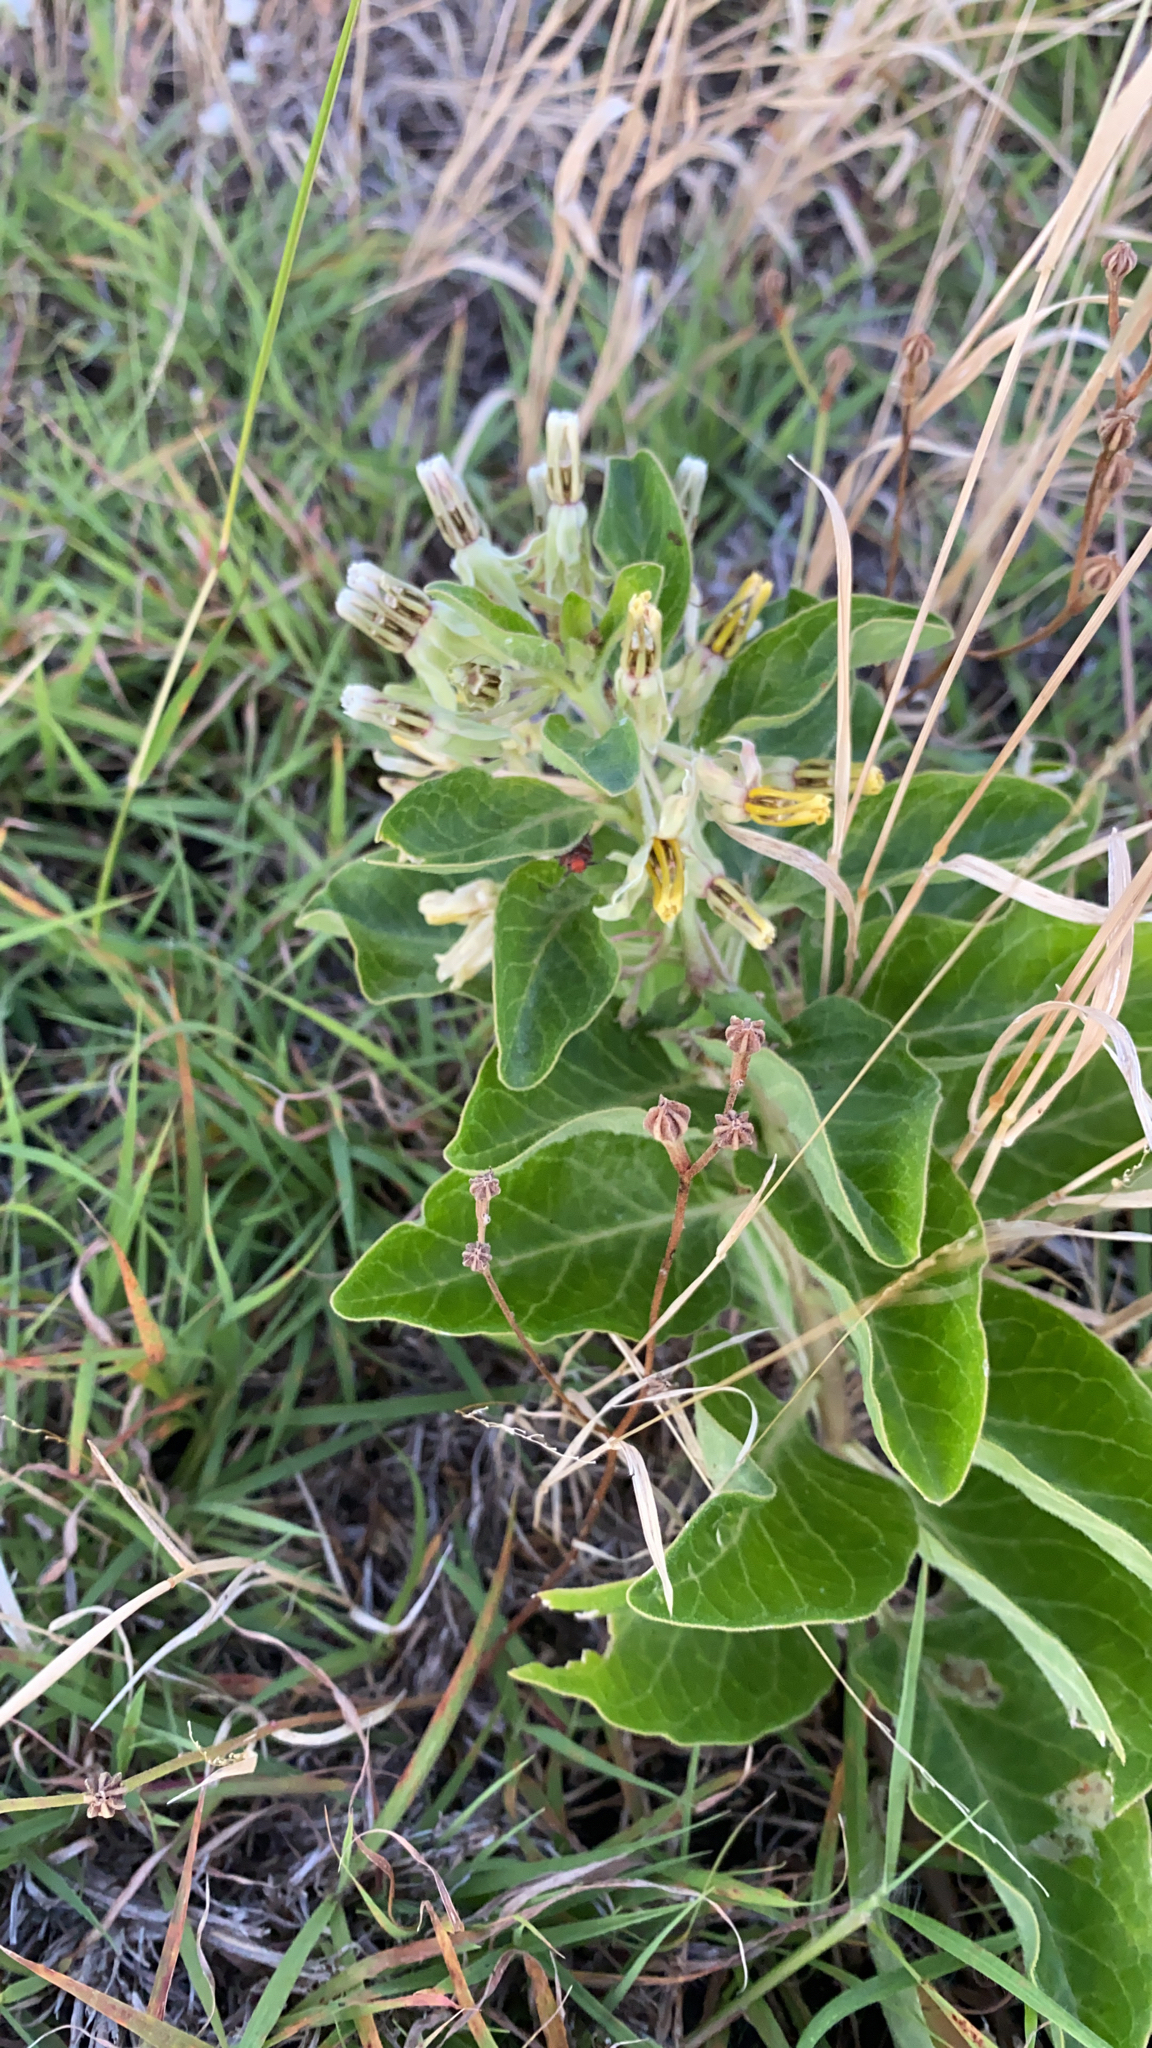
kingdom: Plantae
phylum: Tracheophyta
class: Magnoliopsida
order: Gentianales
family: Apocynaceae
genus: Asclepias
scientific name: Asclepias oenotheroides
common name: Zizotes milkweed
